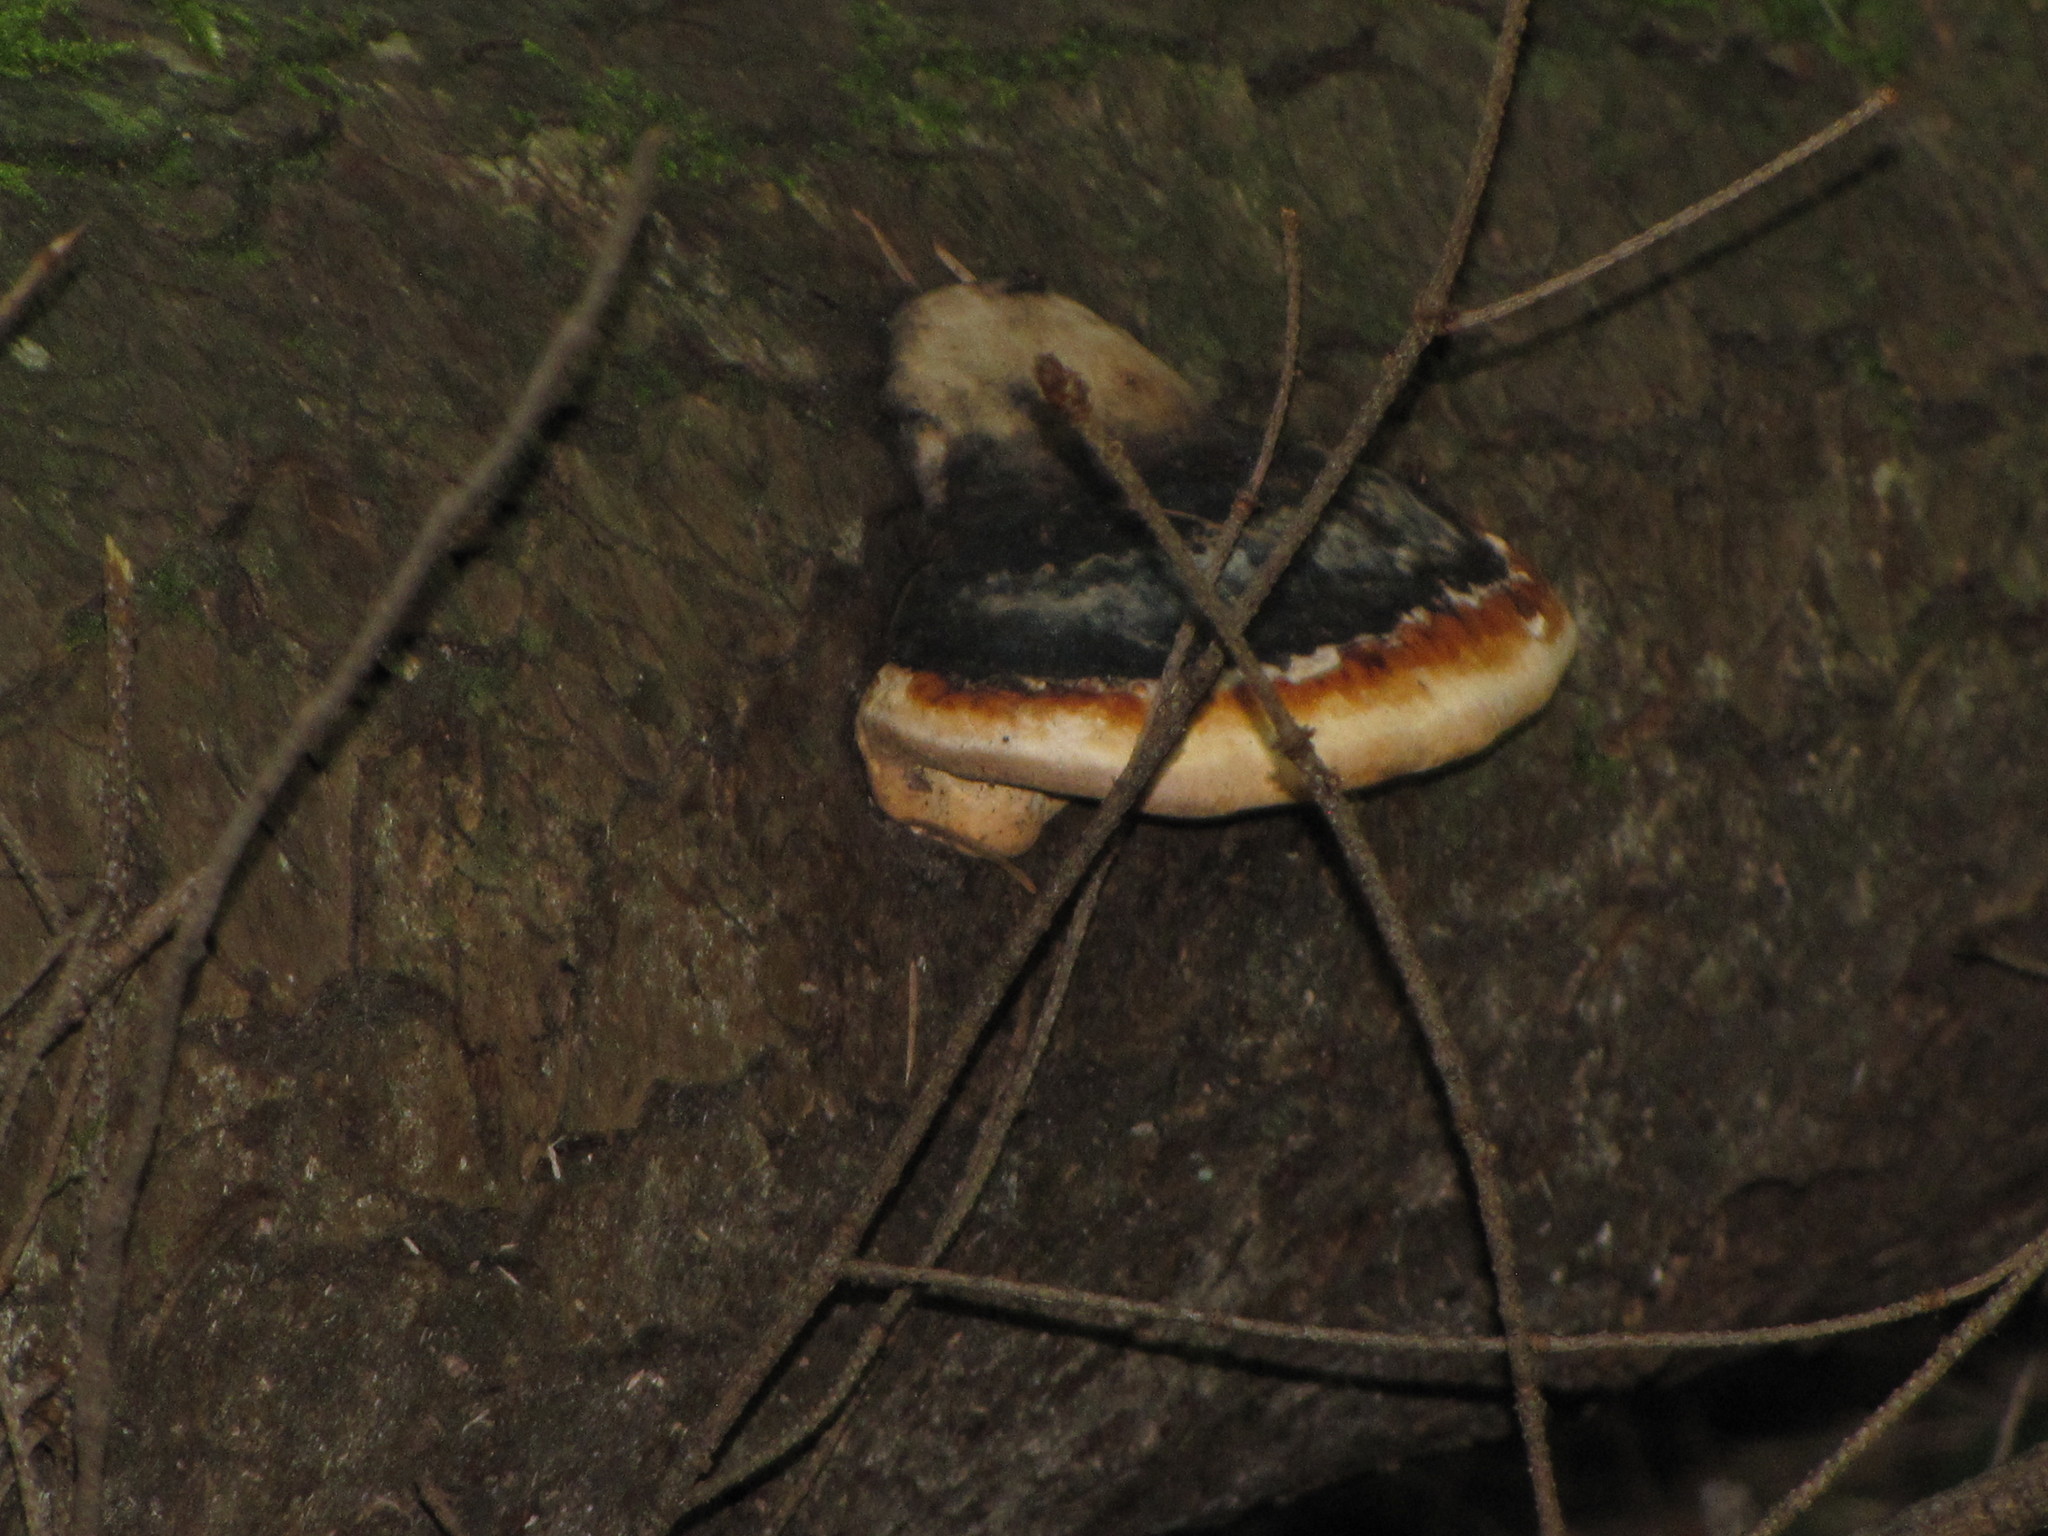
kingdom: Fungi
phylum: Basidiomycota
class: Agaricomycetes
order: Polyporales
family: Fomitopsidaceae
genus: Fomitopsis
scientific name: Fomitopsis mounceae
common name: Northern red belt
